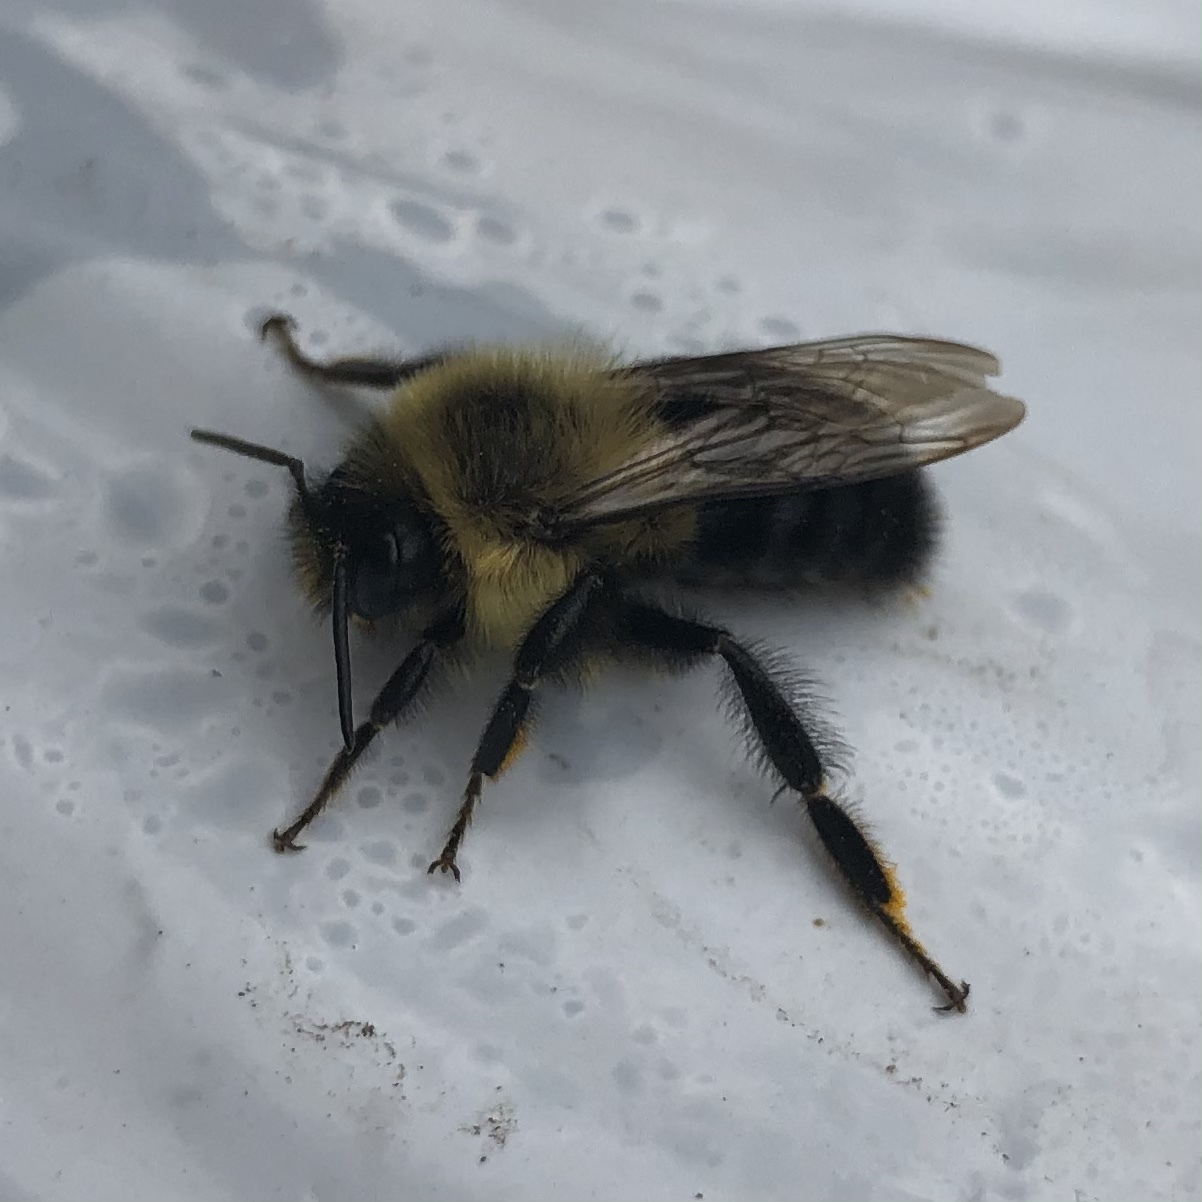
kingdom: Animalia
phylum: Arthropoda
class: Insecta
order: Hymenoptera
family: Apidae
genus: Bombus
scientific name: Bombus impatiens
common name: Common eastern bumble bee
